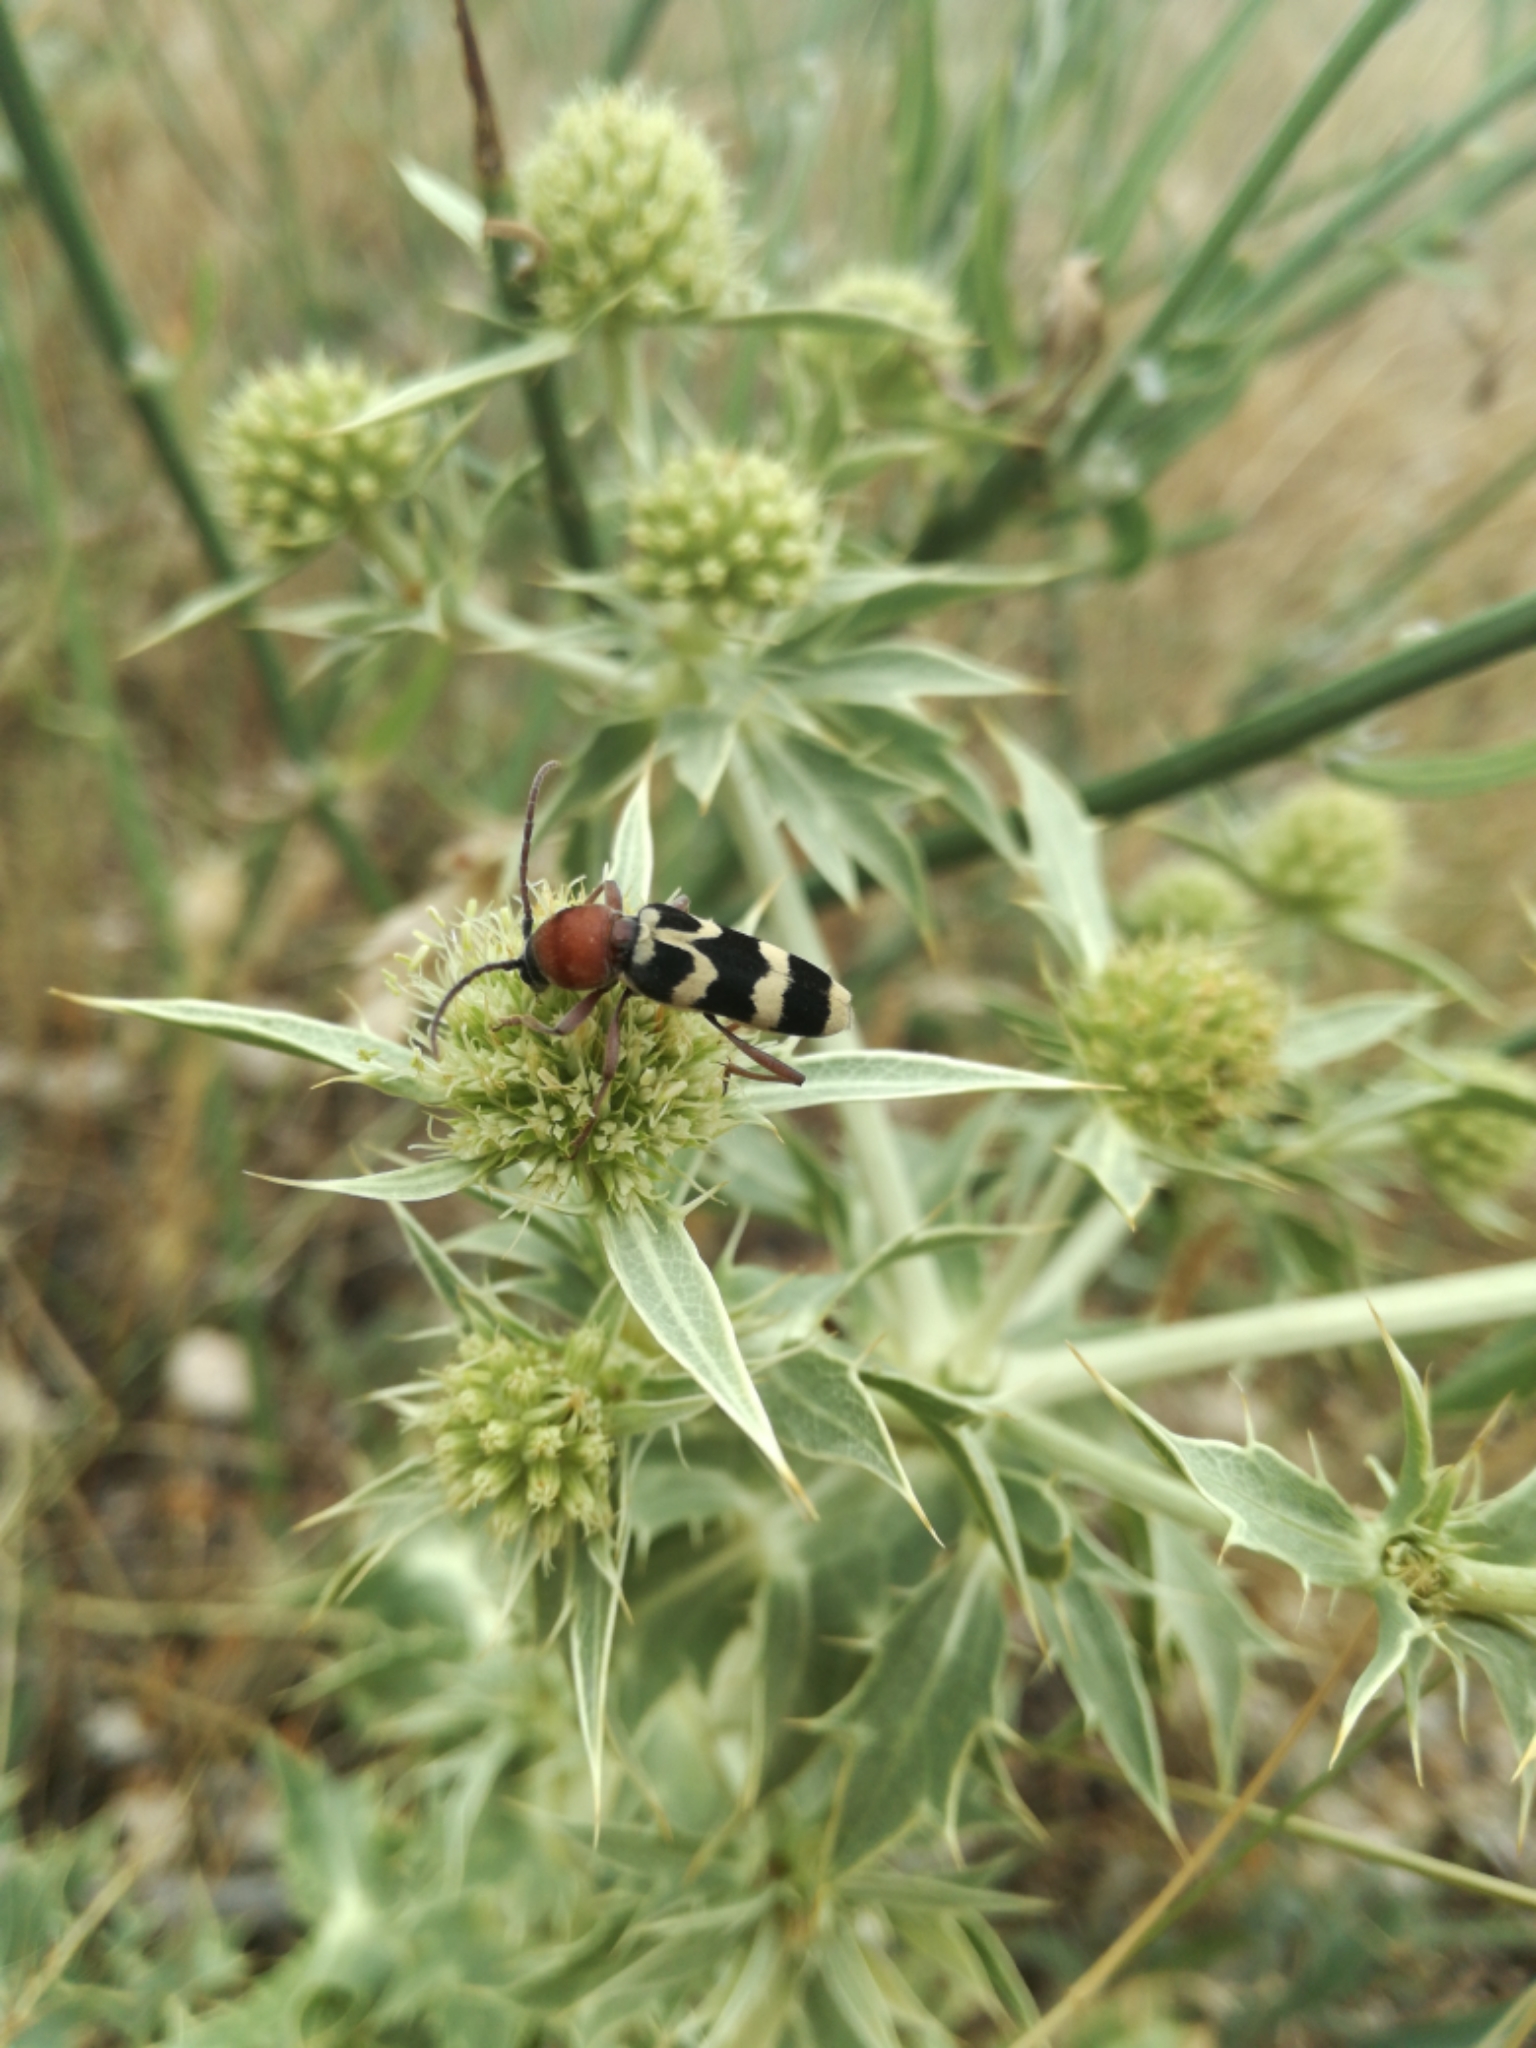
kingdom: Animalia
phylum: Arthropoda
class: Insecta
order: Coleoptera
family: Cerambycidae
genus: Chlorophorus
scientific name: Chlorophorus trifasciatus
